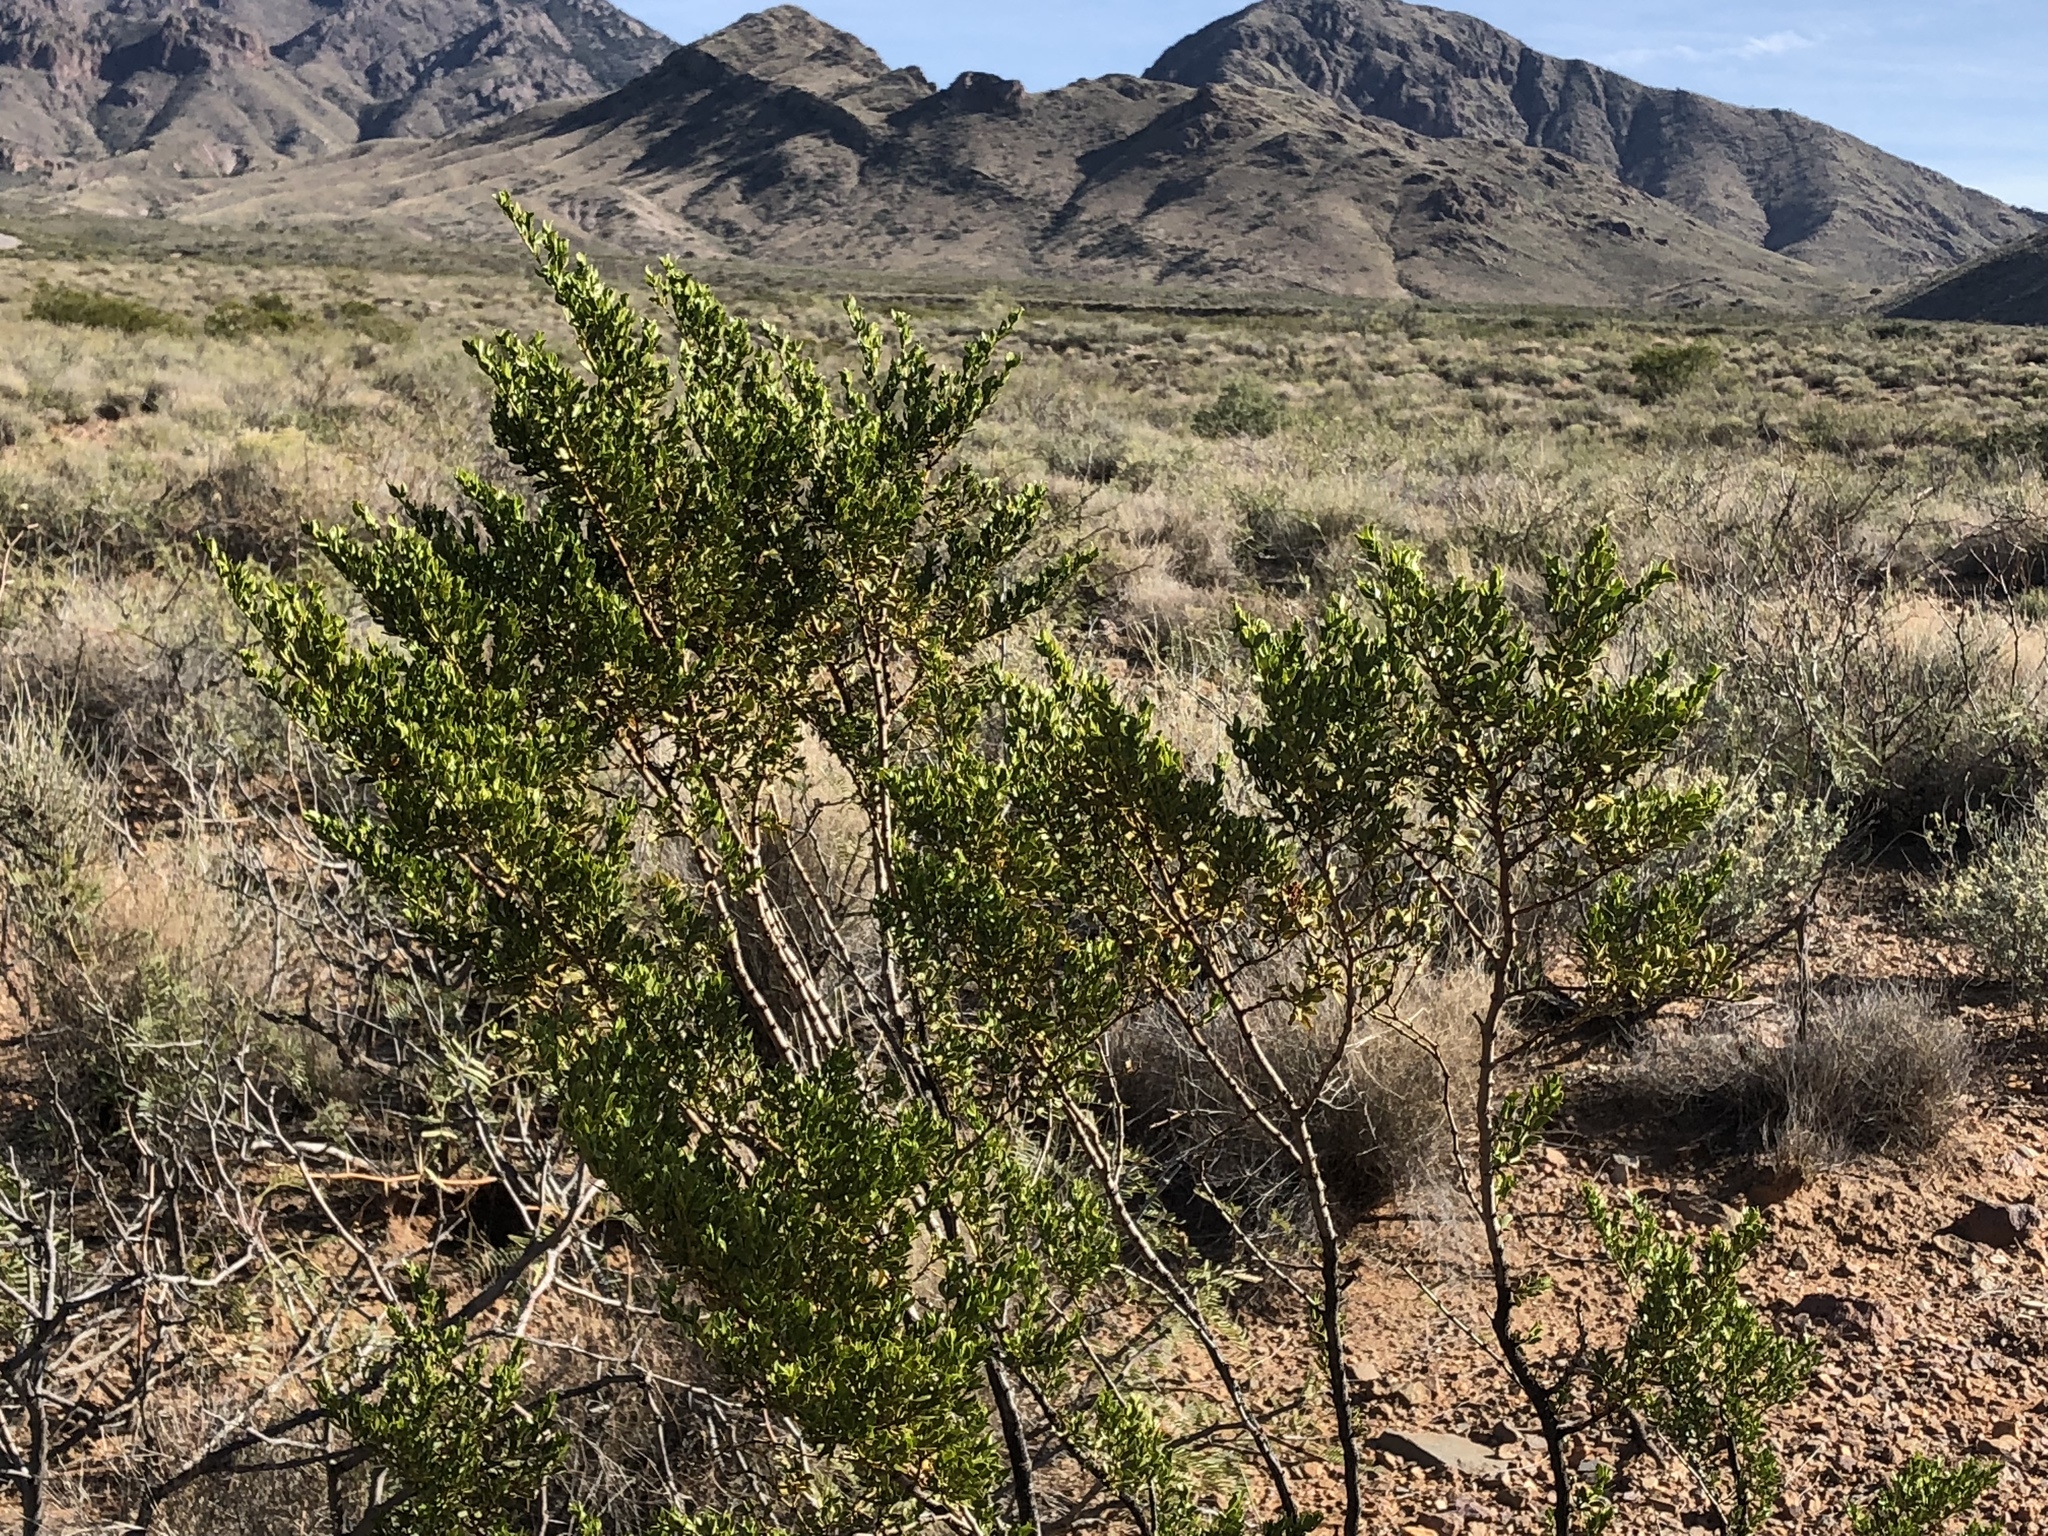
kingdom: Plantae
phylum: Tracheophyta
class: Magnoliopsida
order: Zygophyllales
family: Zygophyllaceae
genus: Larrea
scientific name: Larrea tridentata
